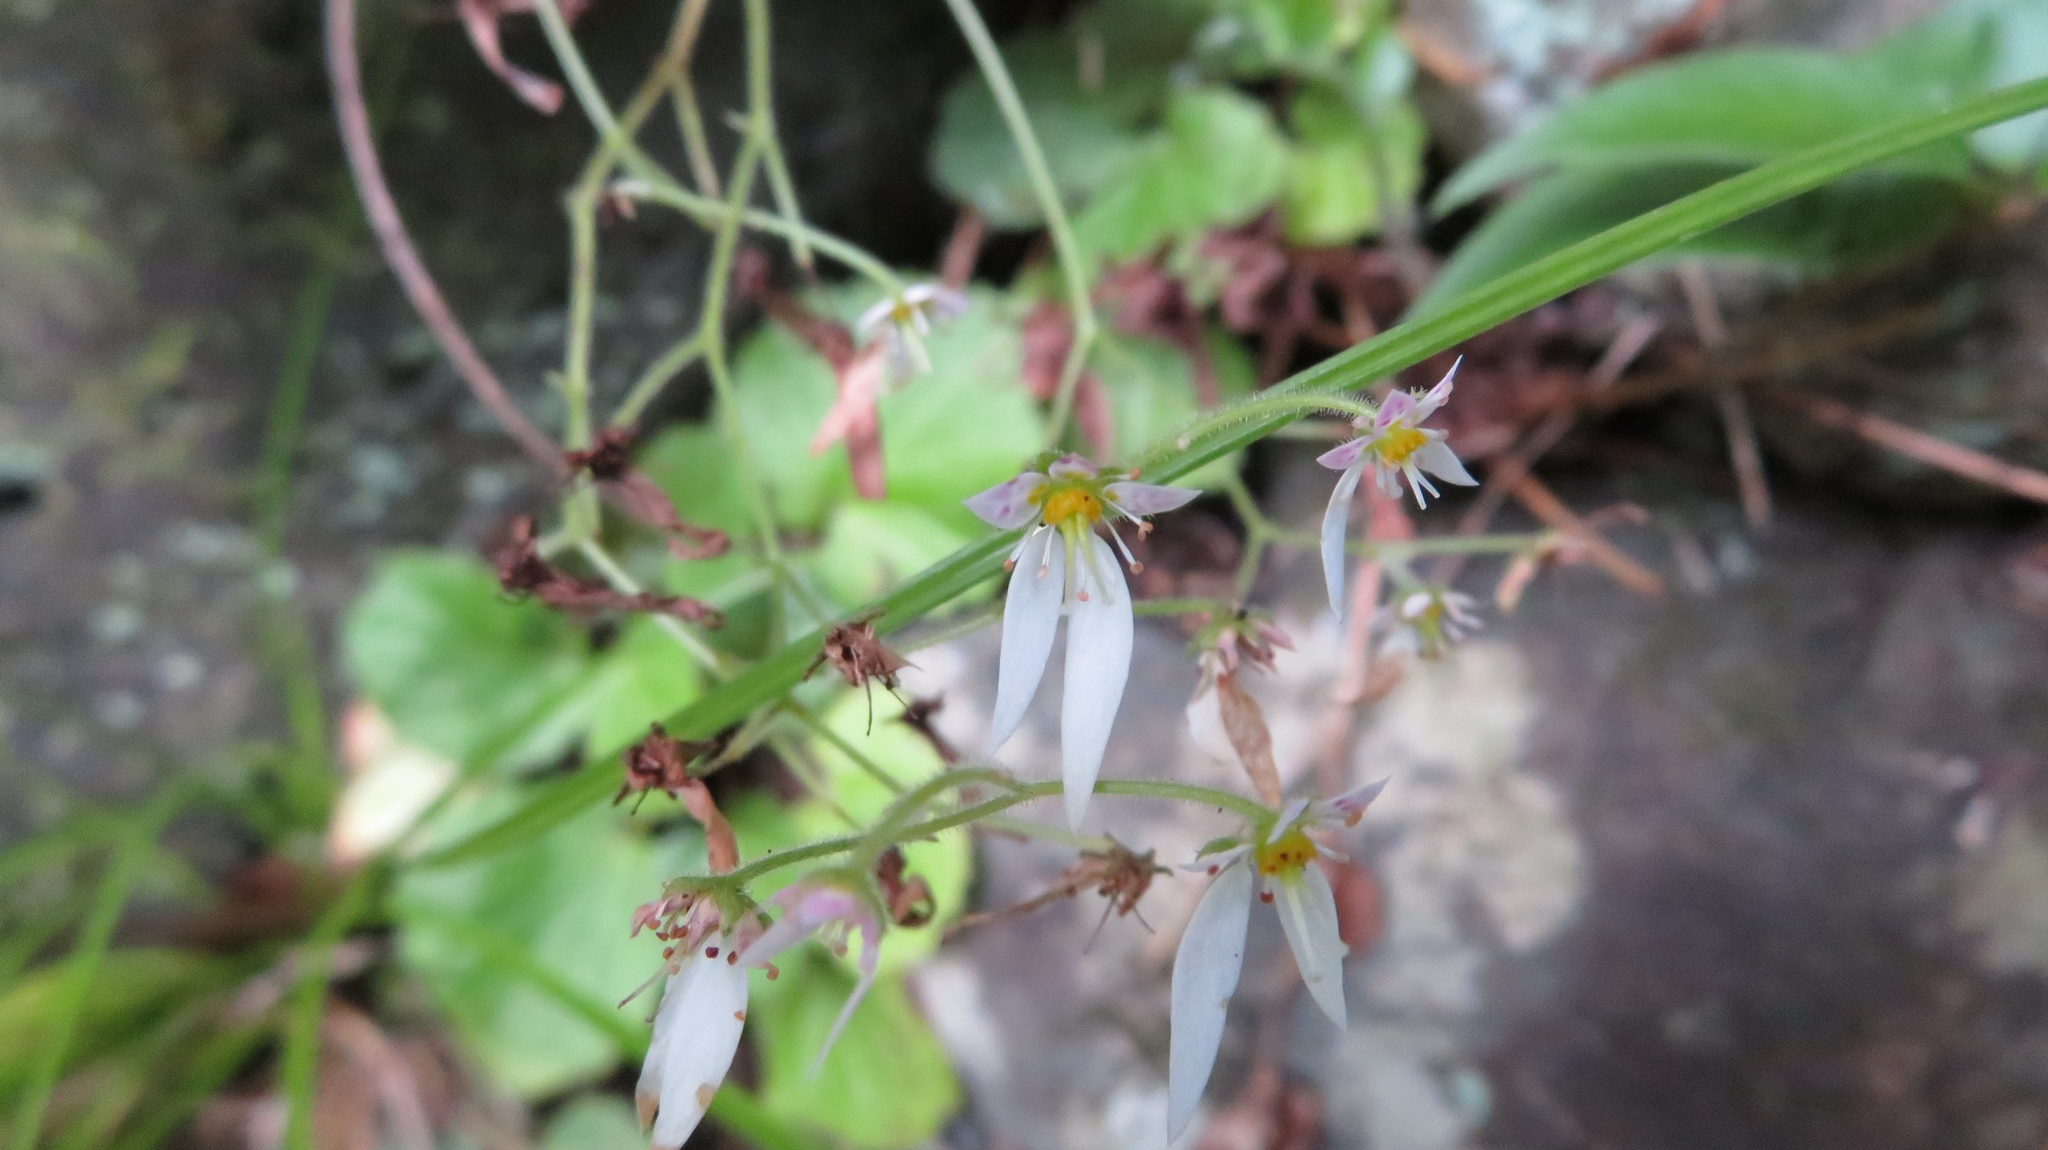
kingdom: Plantae
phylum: Tracheophyta
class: Magnoliopsida
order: Saxifragales
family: Saxifragaceae
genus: Saxifraga
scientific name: Saxifraga stolonifera
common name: Creeping saxifrage
